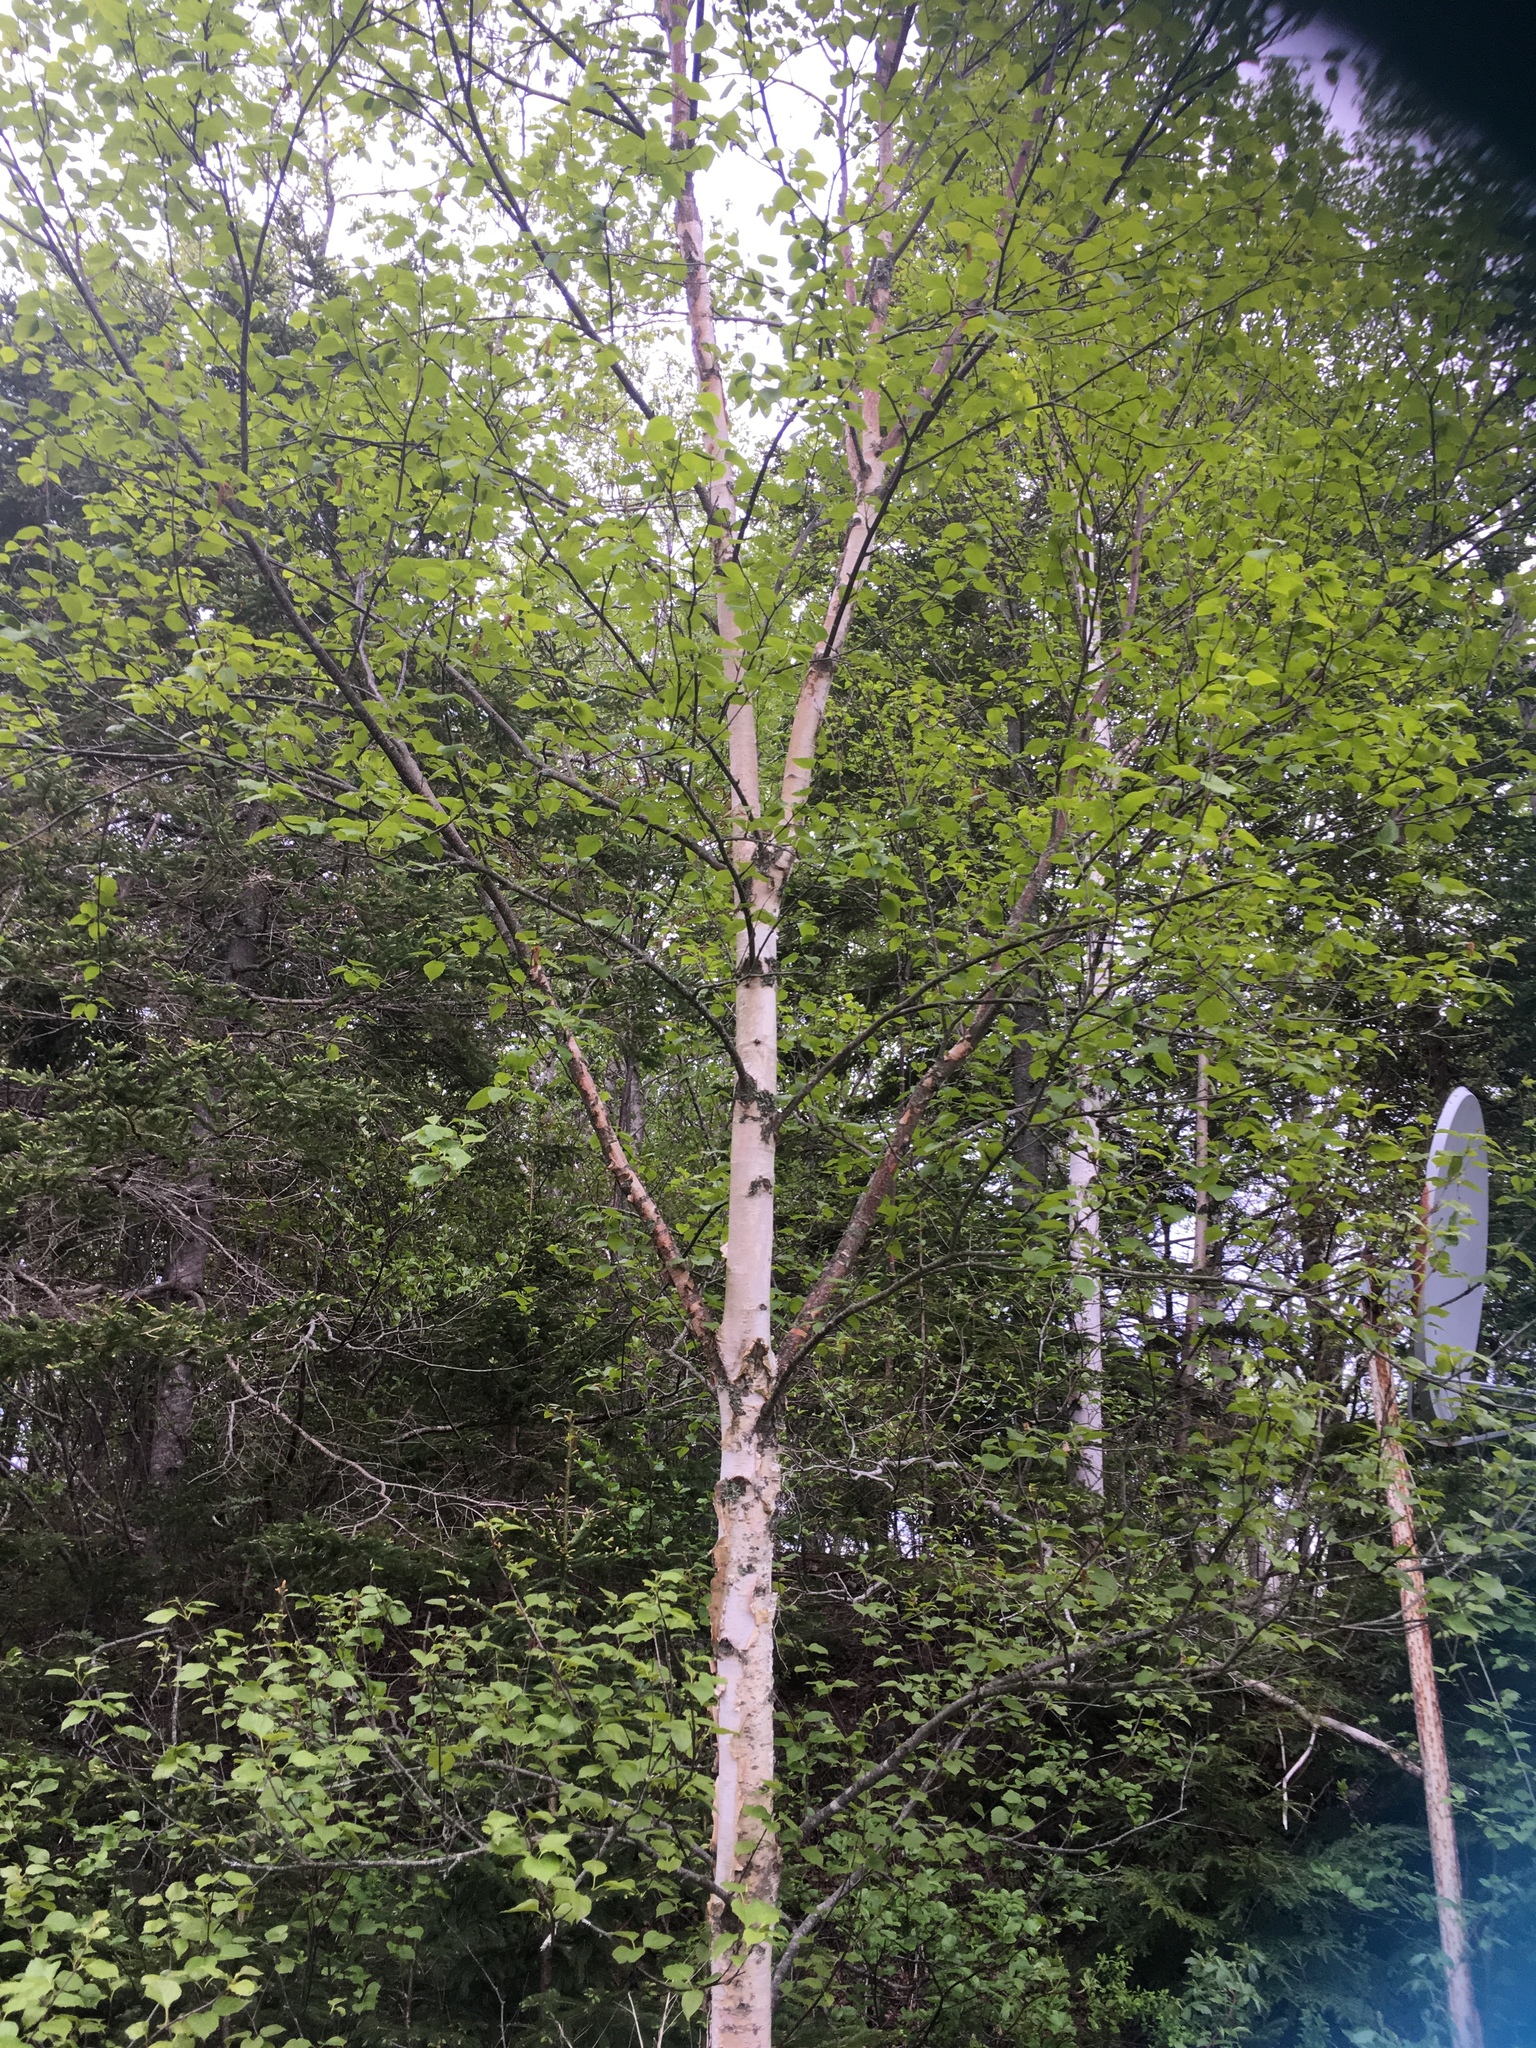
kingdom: Plantae
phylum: Tracheophyta
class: Magnoliopsida
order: Fagales
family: Betulaceae
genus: Betula
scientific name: Betula papyrifera
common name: Paper birch
